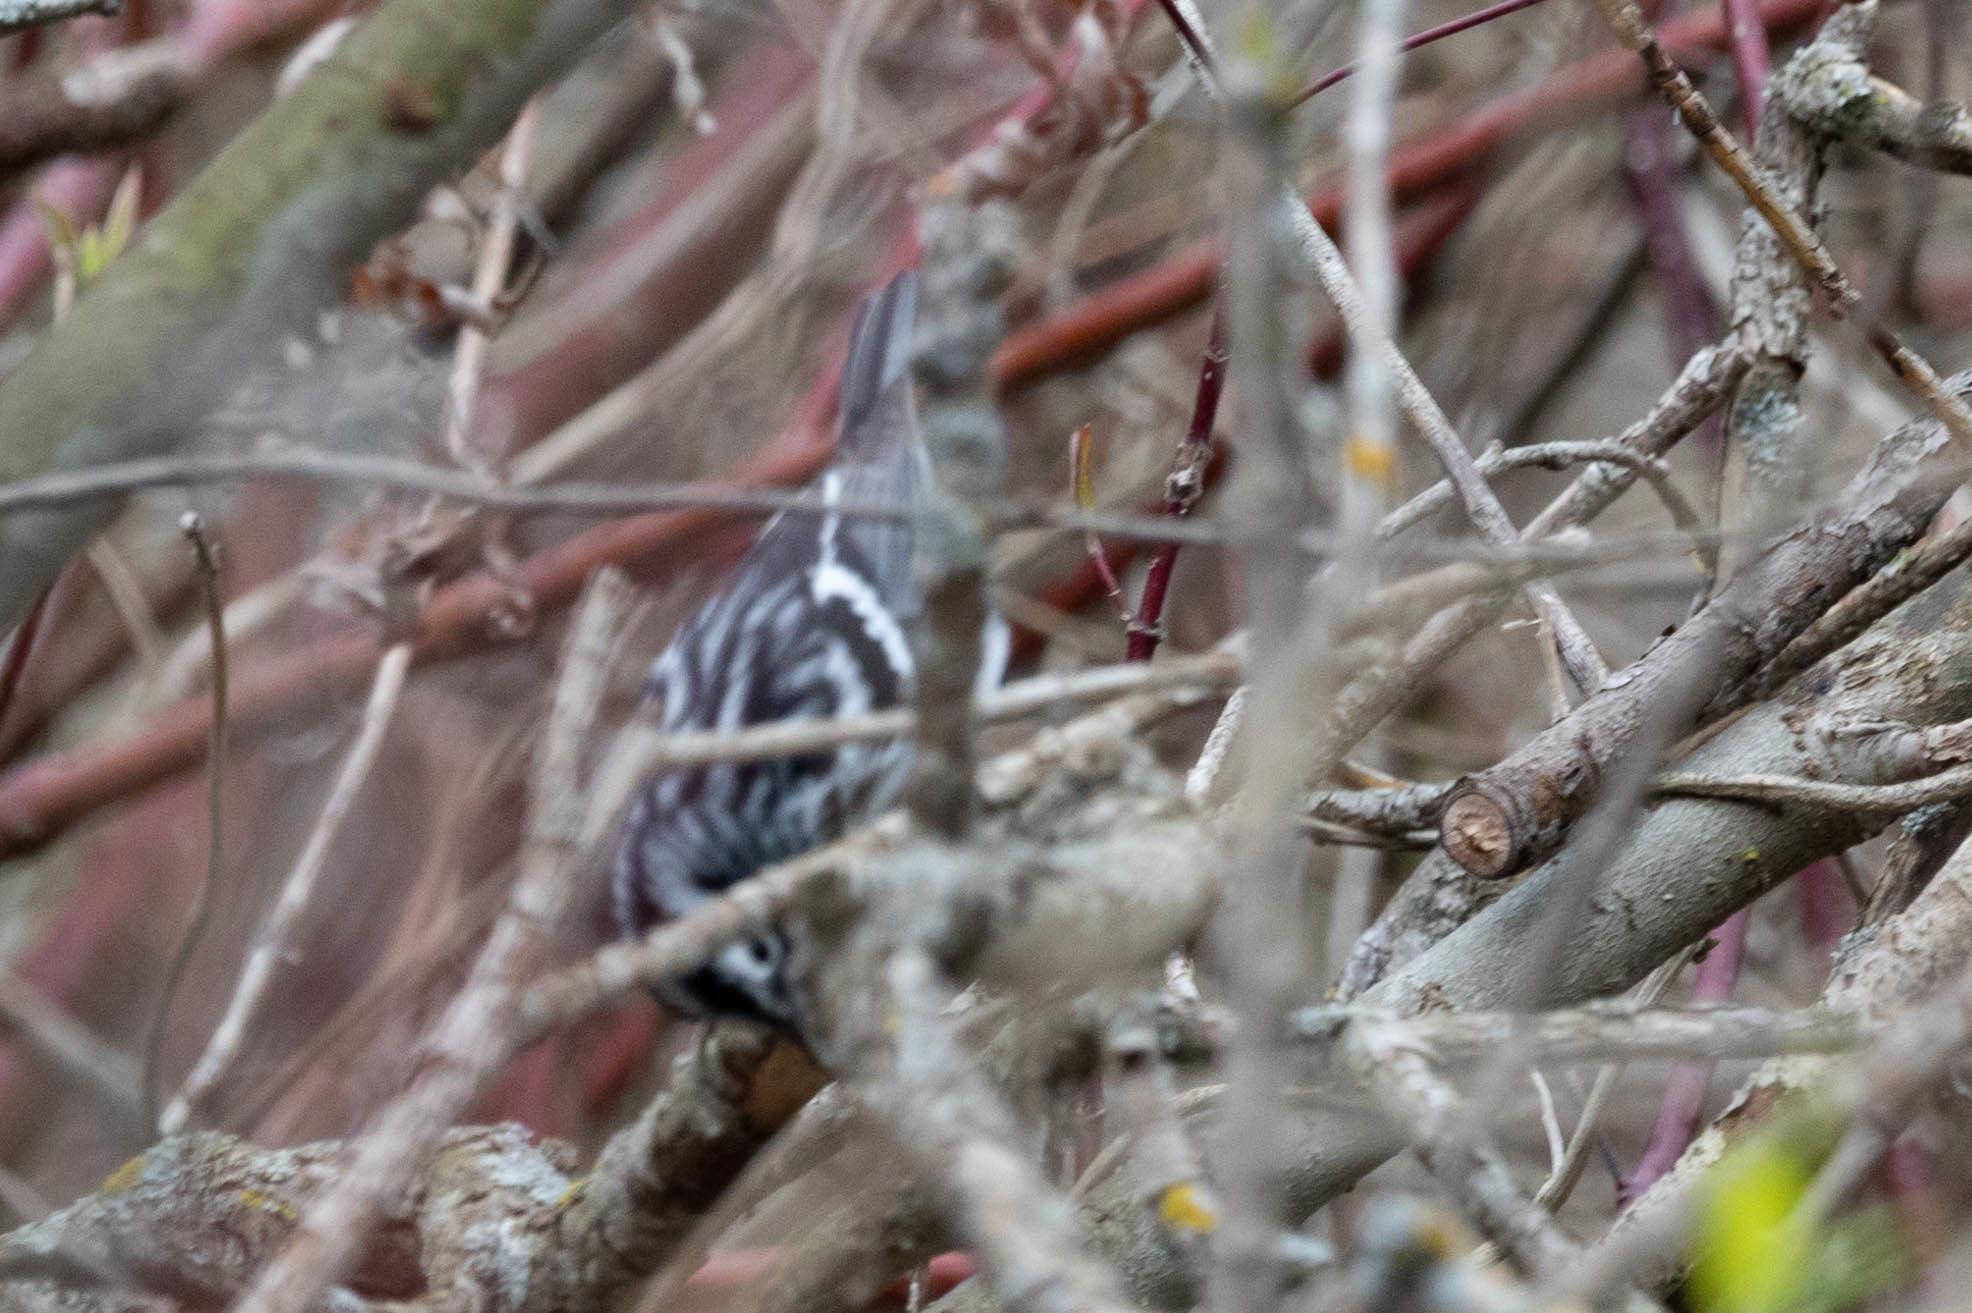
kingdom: Animalia
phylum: Chordata
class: Aves
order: Passeriformes
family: Parulidae
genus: Mniotilta
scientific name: Mniotilta varia
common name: Black-and-white warbler
